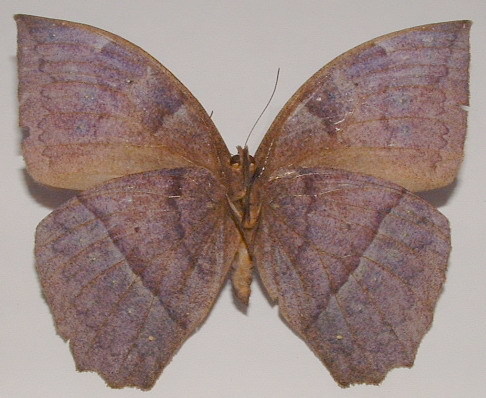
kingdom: Animalia
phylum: Arthropoda
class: Insecta
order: Lepidoptera
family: Nymphalidae
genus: Taygetis
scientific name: Taygetis mermeria
